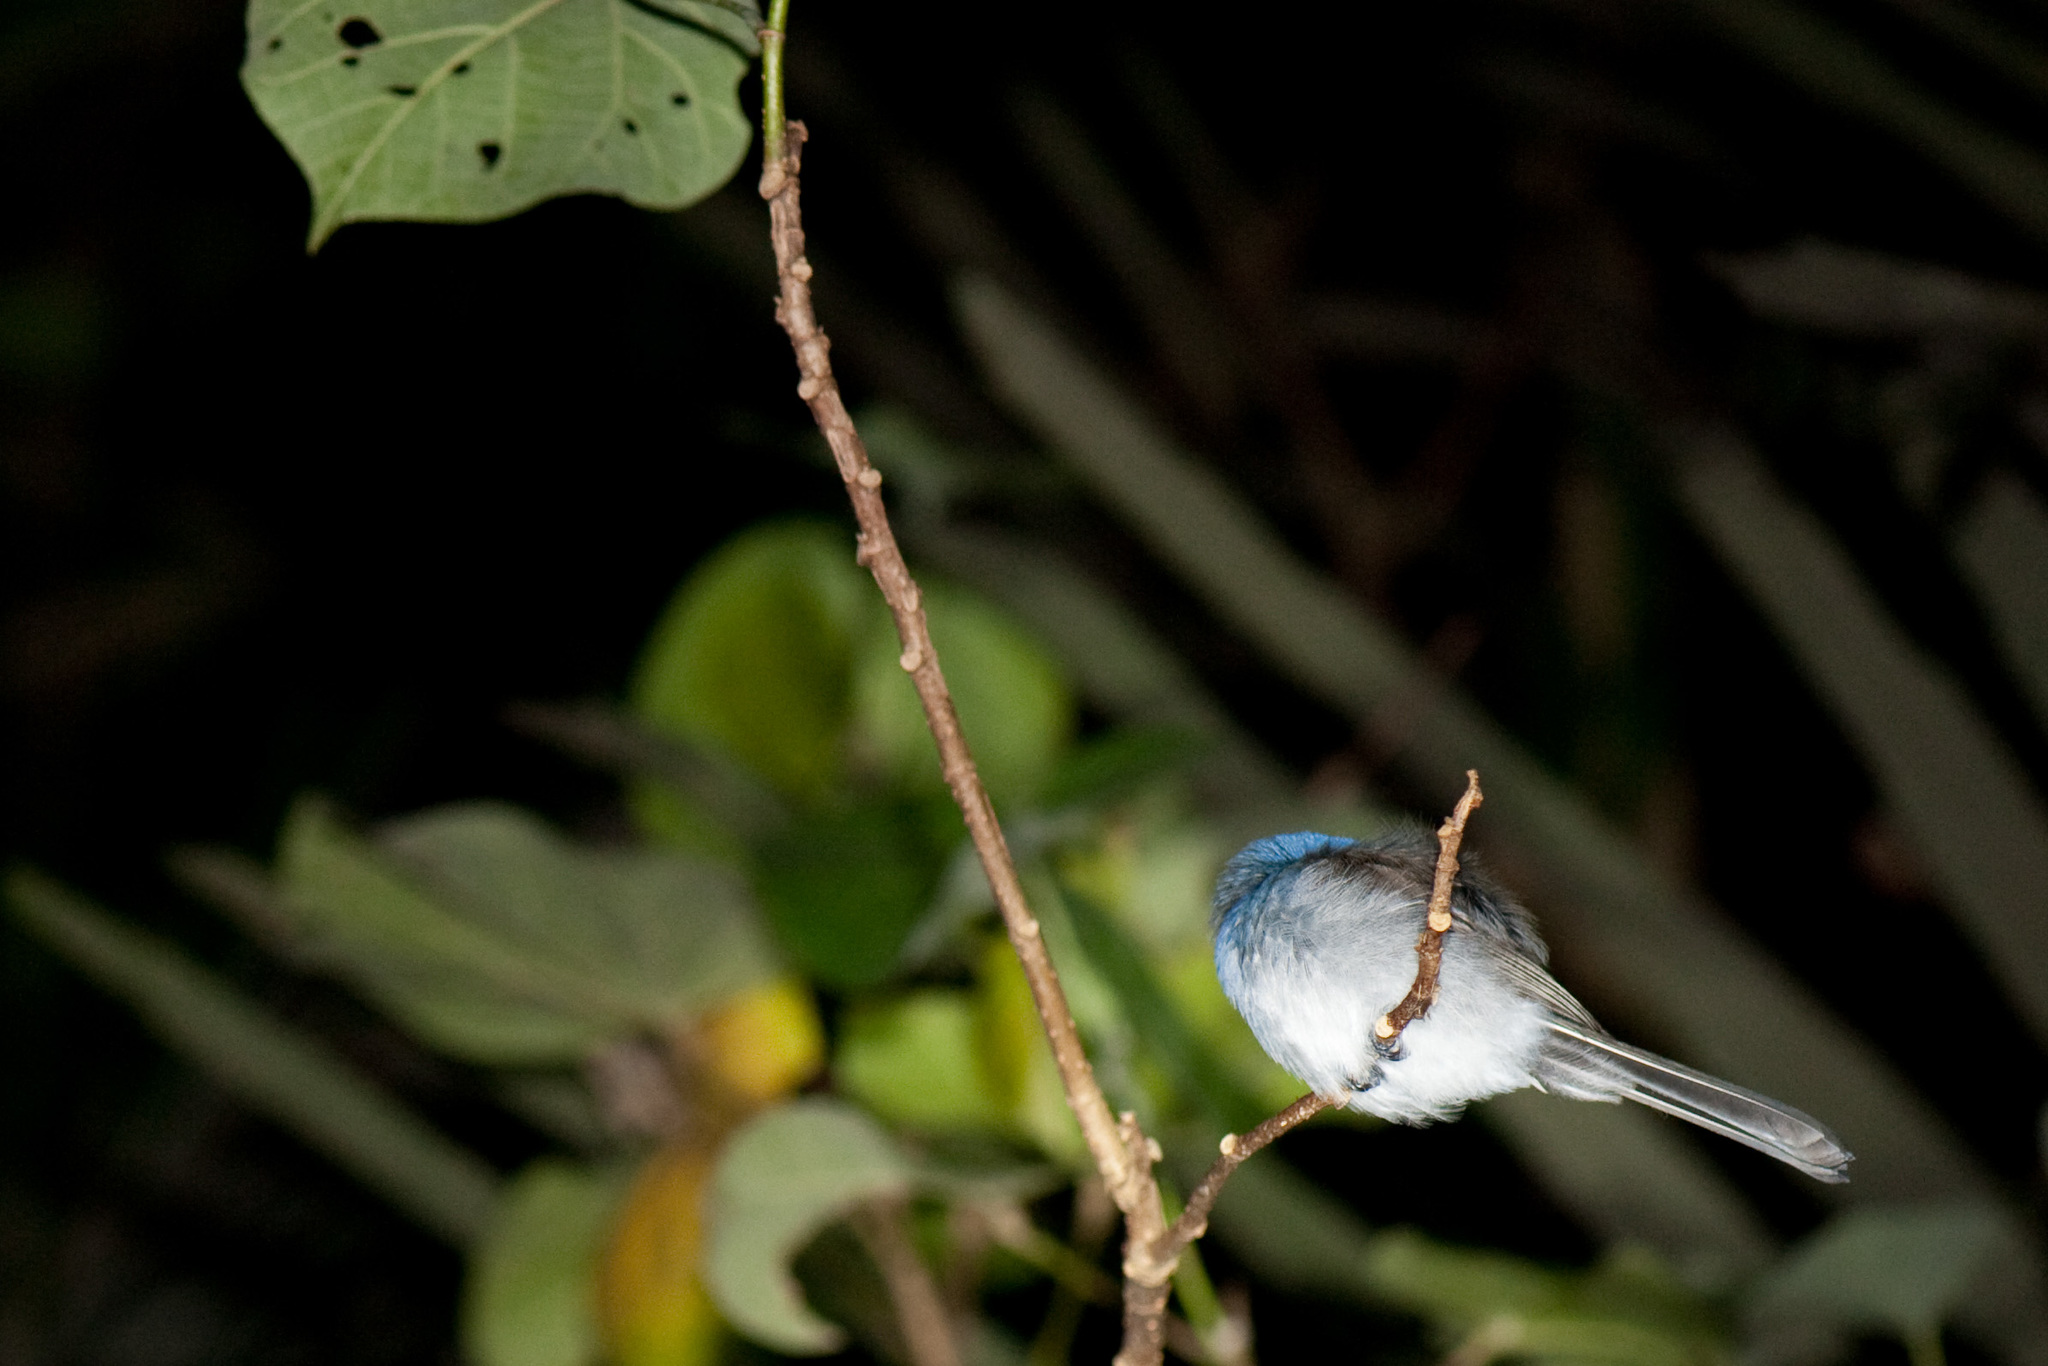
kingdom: Animalia
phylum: Chordata
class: Aves
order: Passeriformes
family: Monarchidae
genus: Hypothymis
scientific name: Hypothymis azurea
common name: Black-naped monarch
